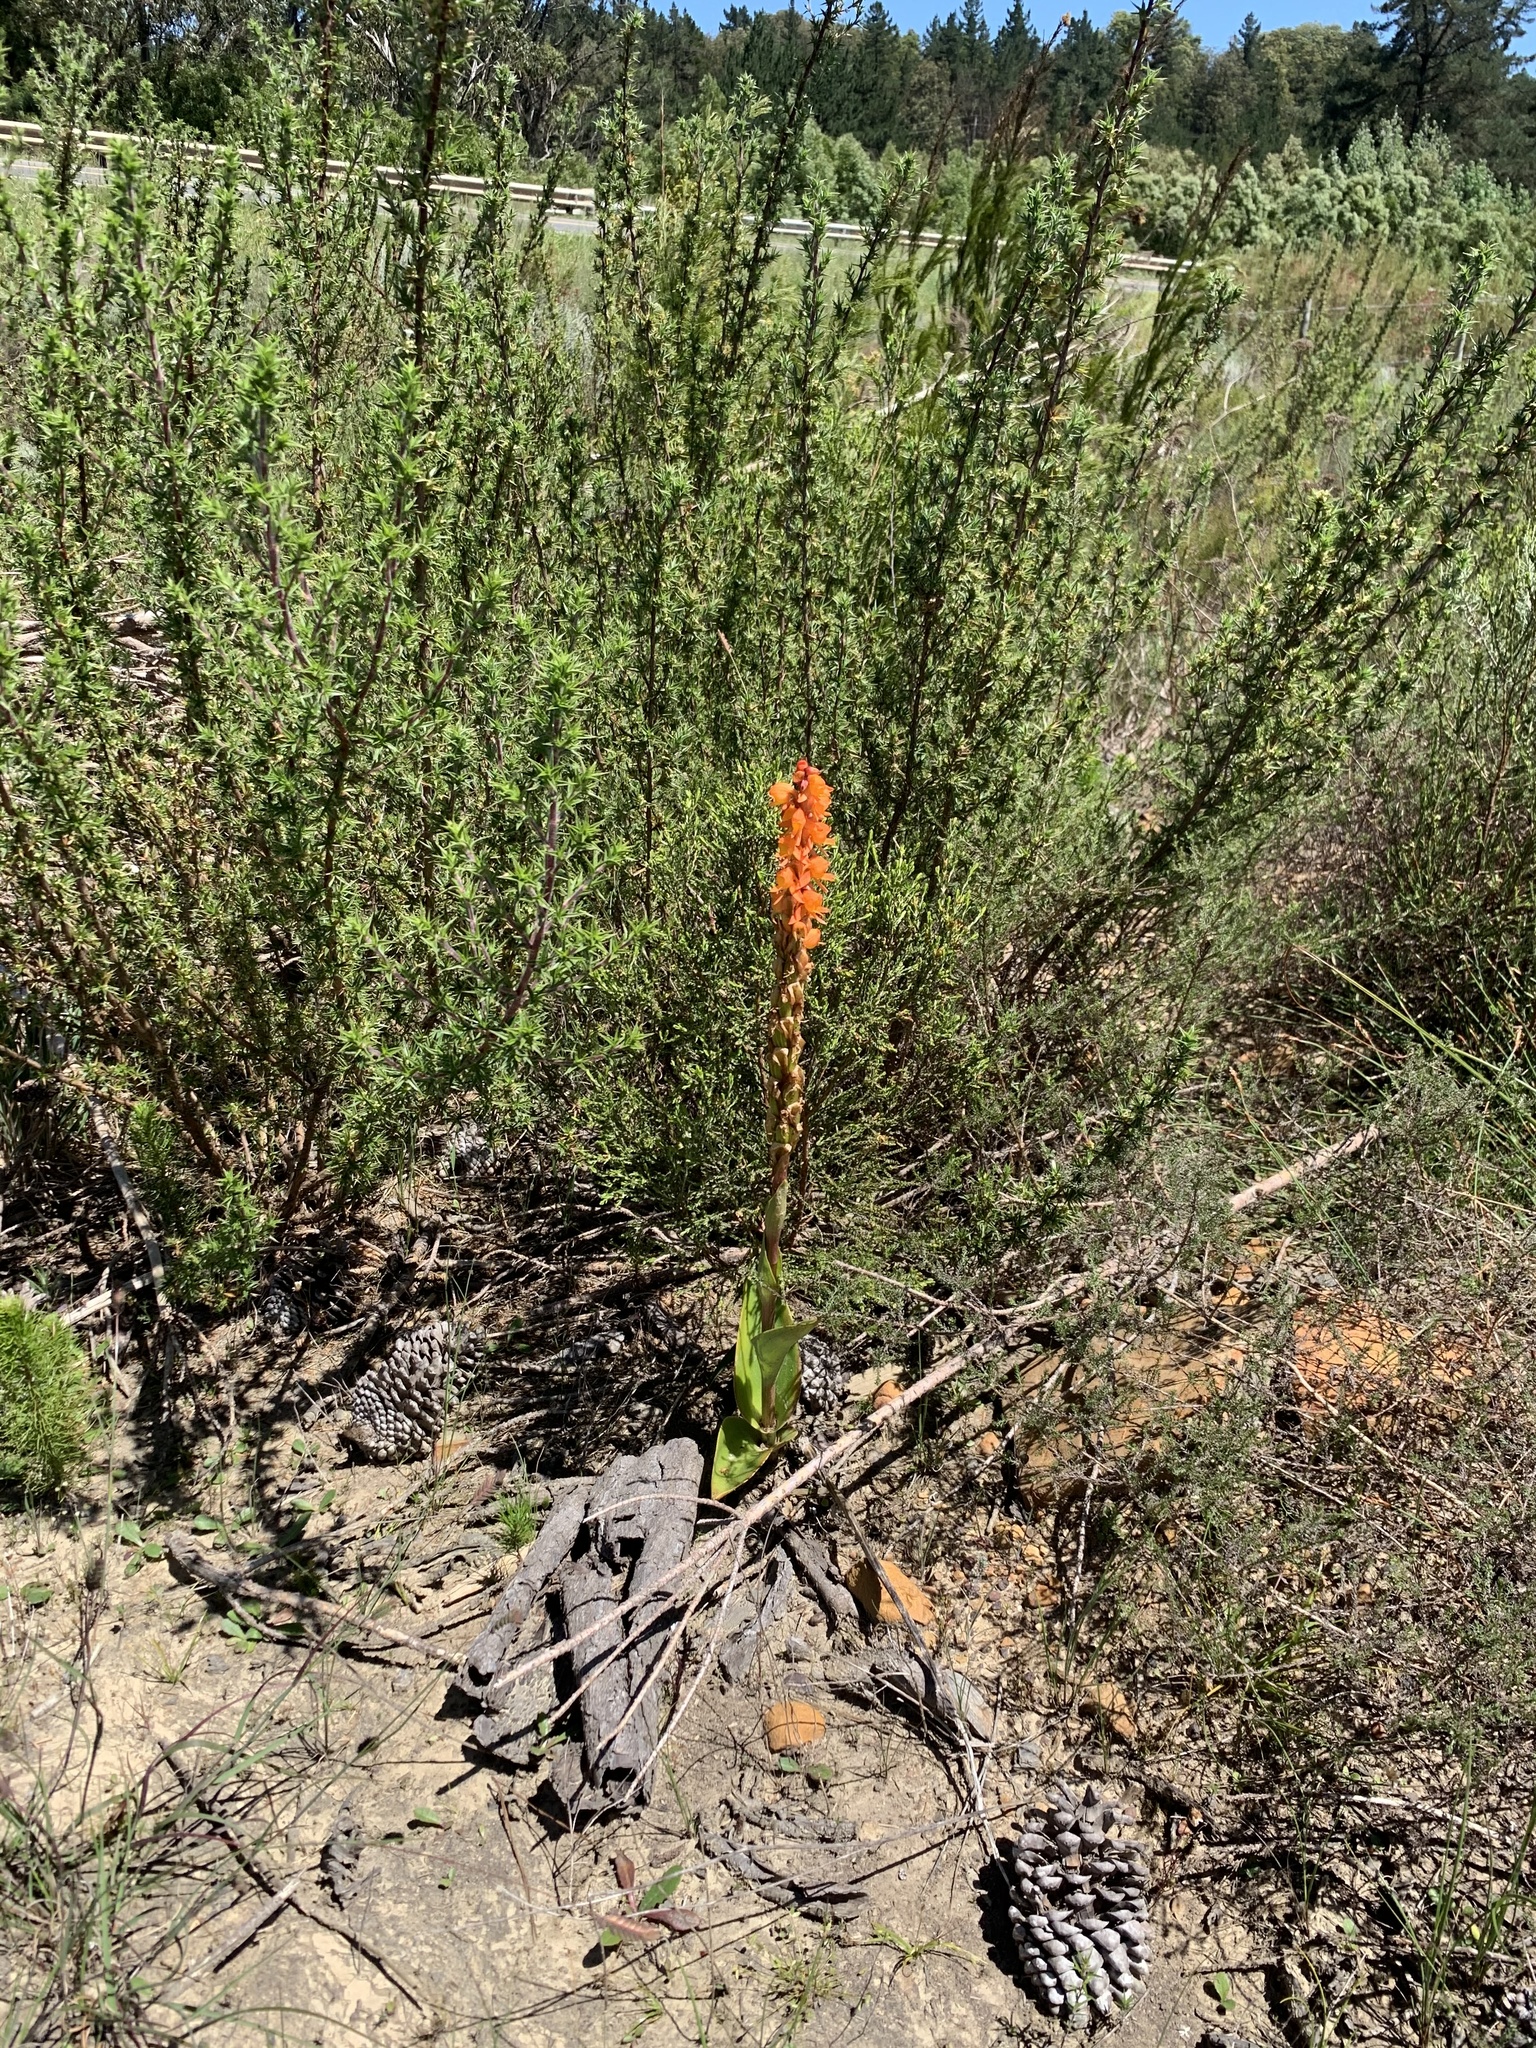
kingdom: Plantae
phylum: Tracheophyta
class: Liliopsida
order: Asparagales
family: Orchidaceae
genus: Satyrium
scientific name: Satyrium coriifolium
